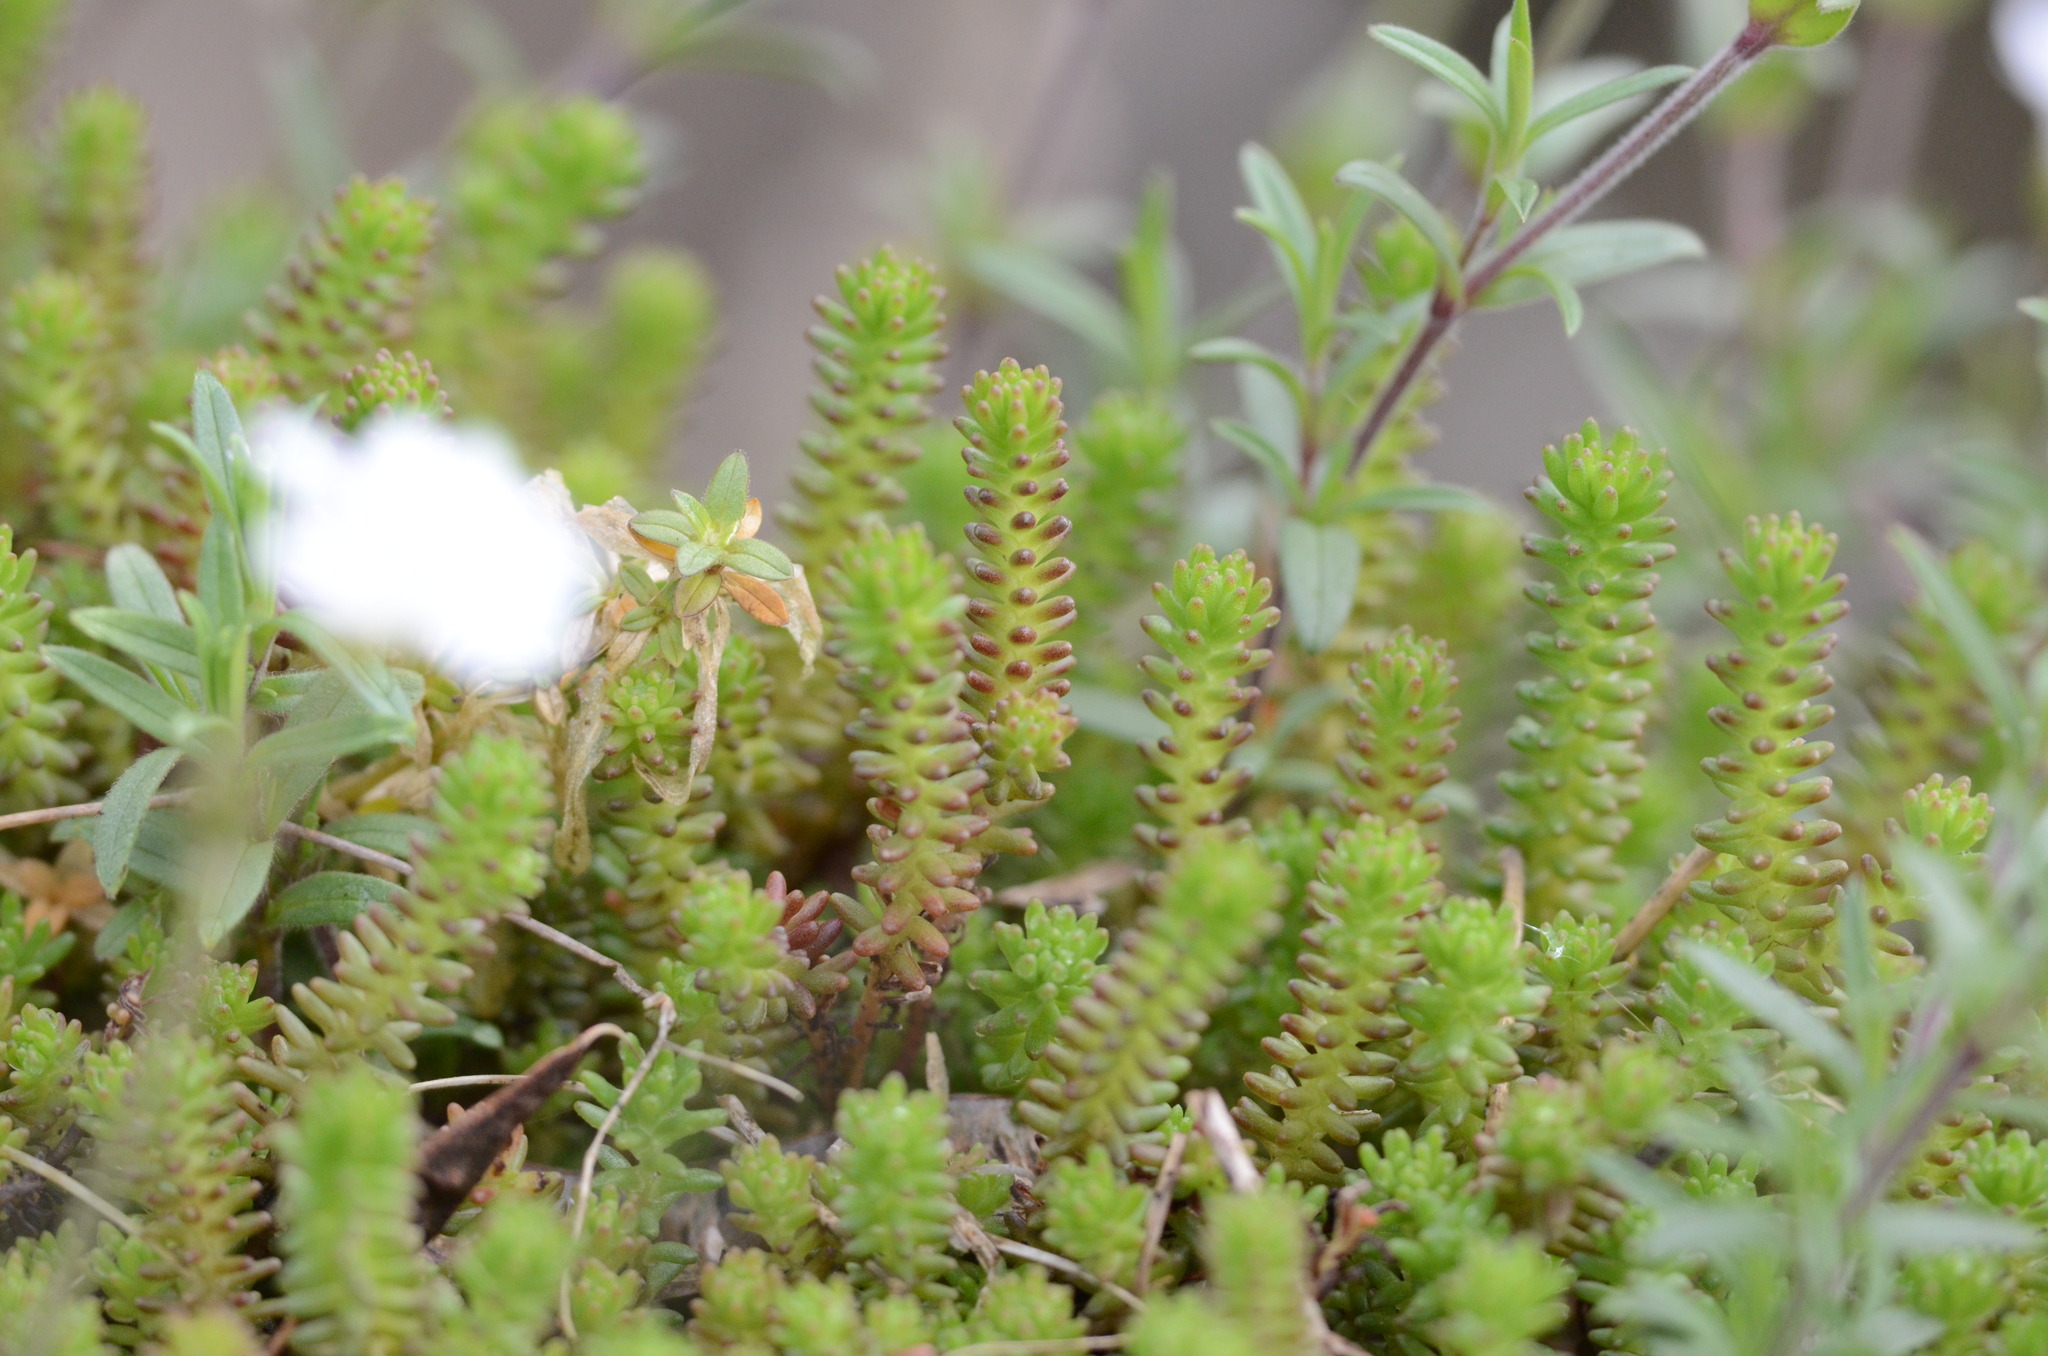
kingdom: Plantae
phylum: Tracheophyta
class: Magnoliopsida
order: Saxifragales
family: Crassulaceae
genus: Sedum
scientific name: Sedum sexangulare
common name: Tasteless stonecrop
